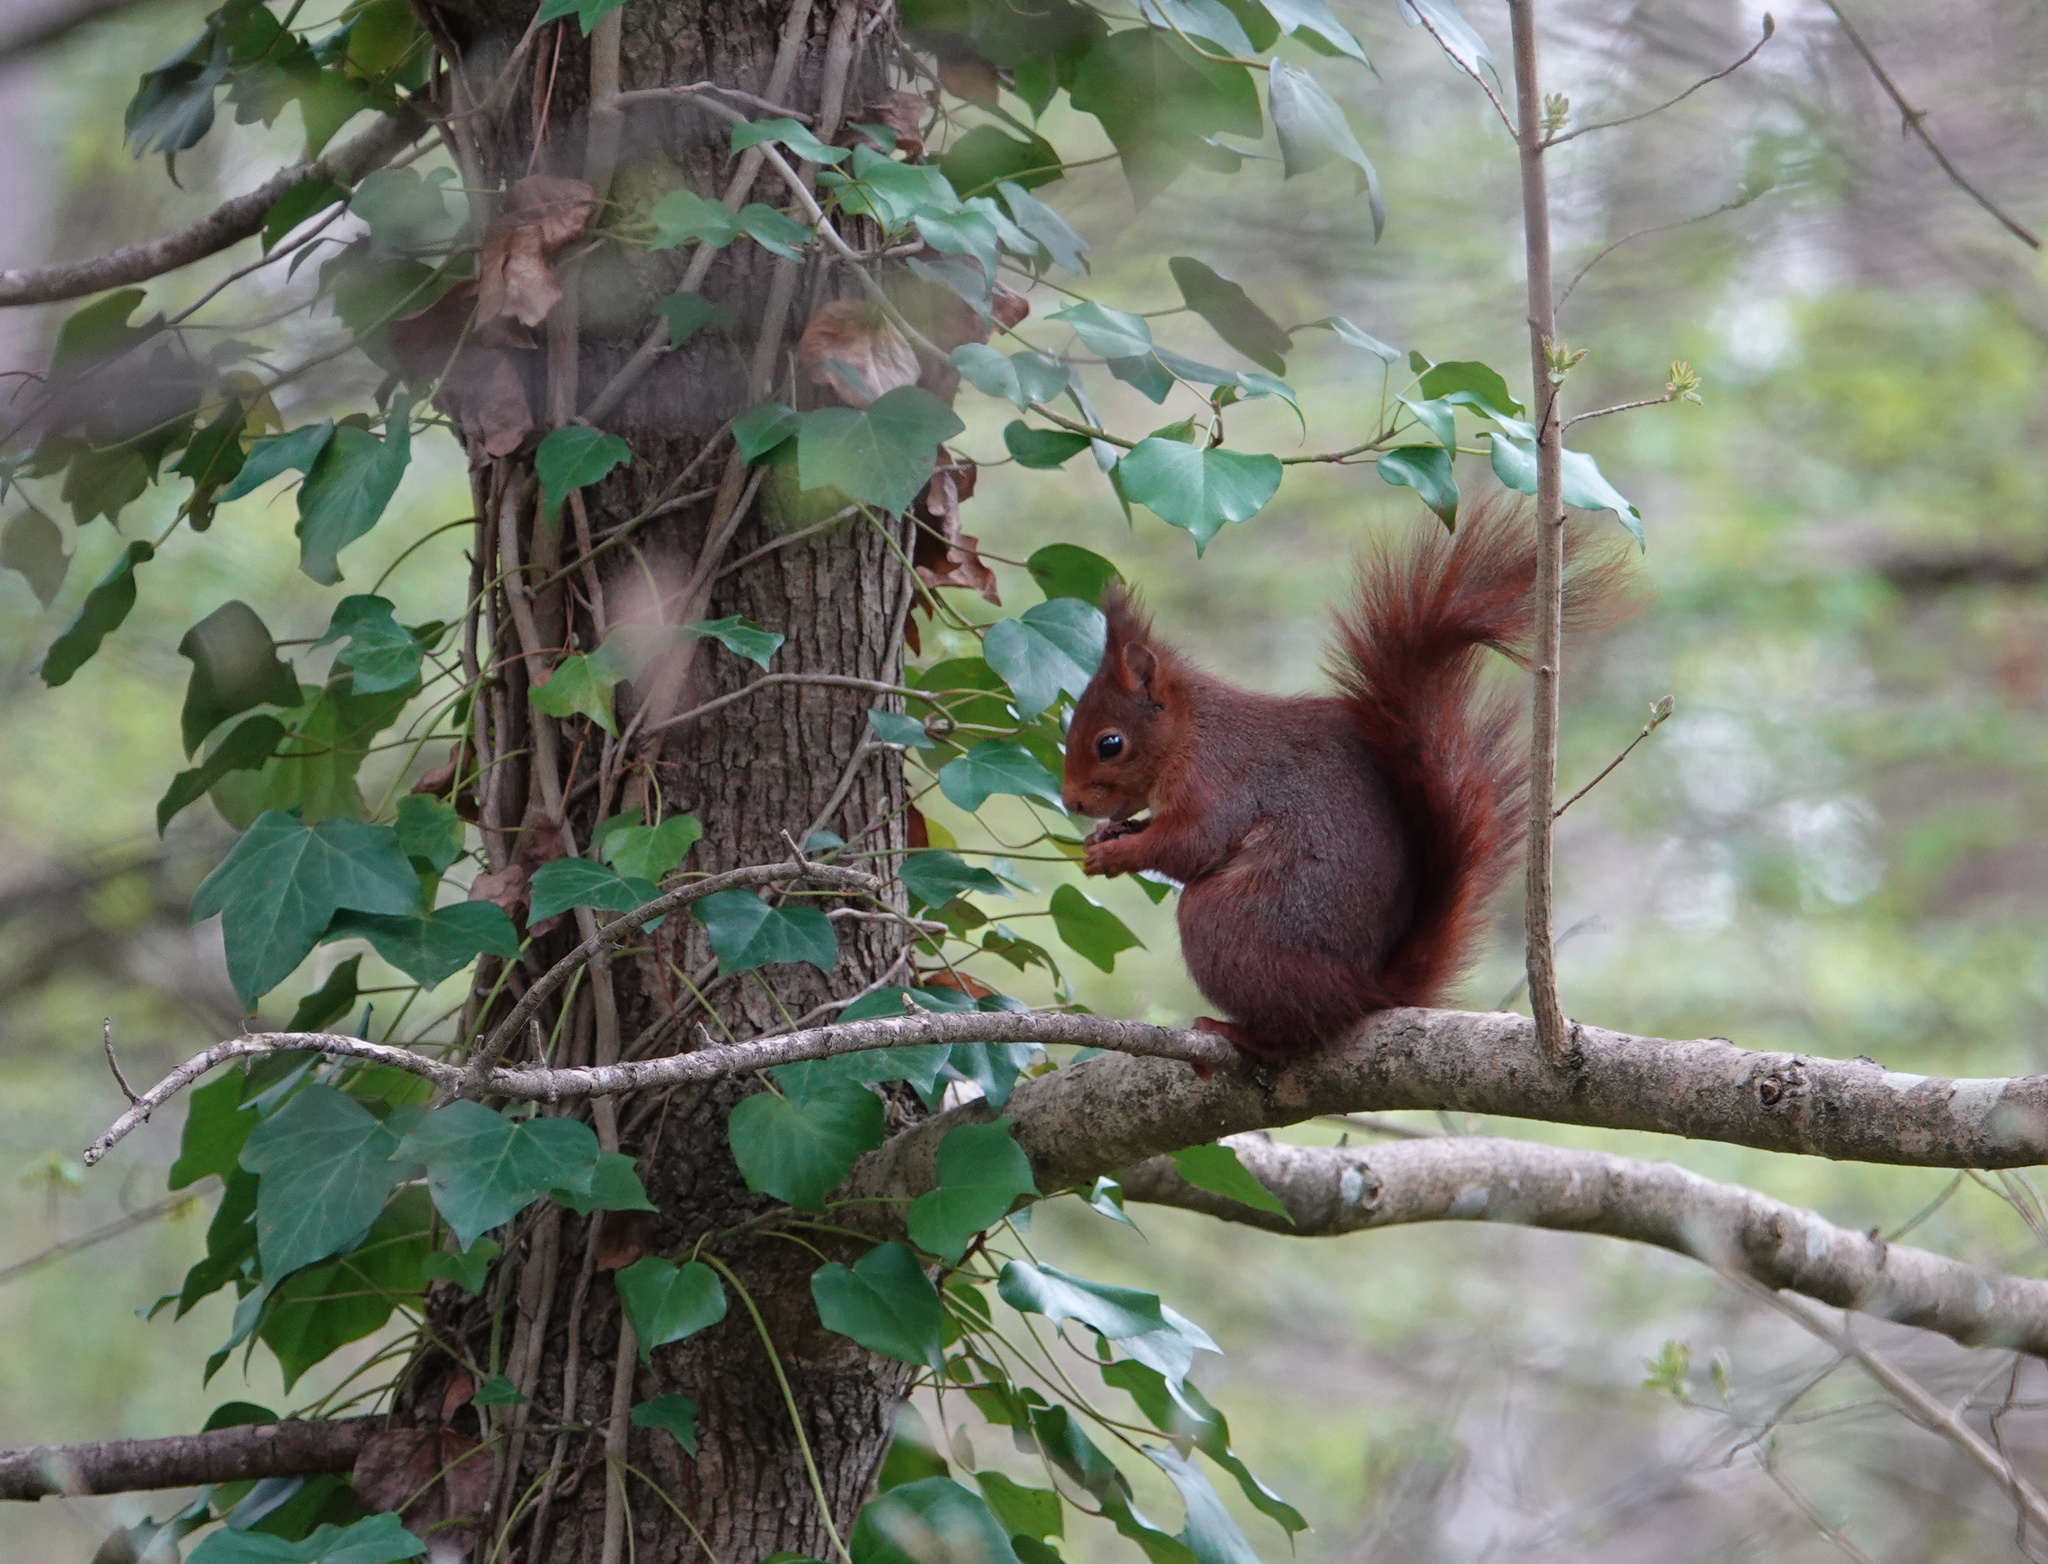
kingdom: Animalia
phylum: Chordata
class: Mammalia
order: Rodentia
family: Sciuridae
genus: Sciurus
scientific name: Sciurus vulgaris
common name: Eurasian red squirrel
